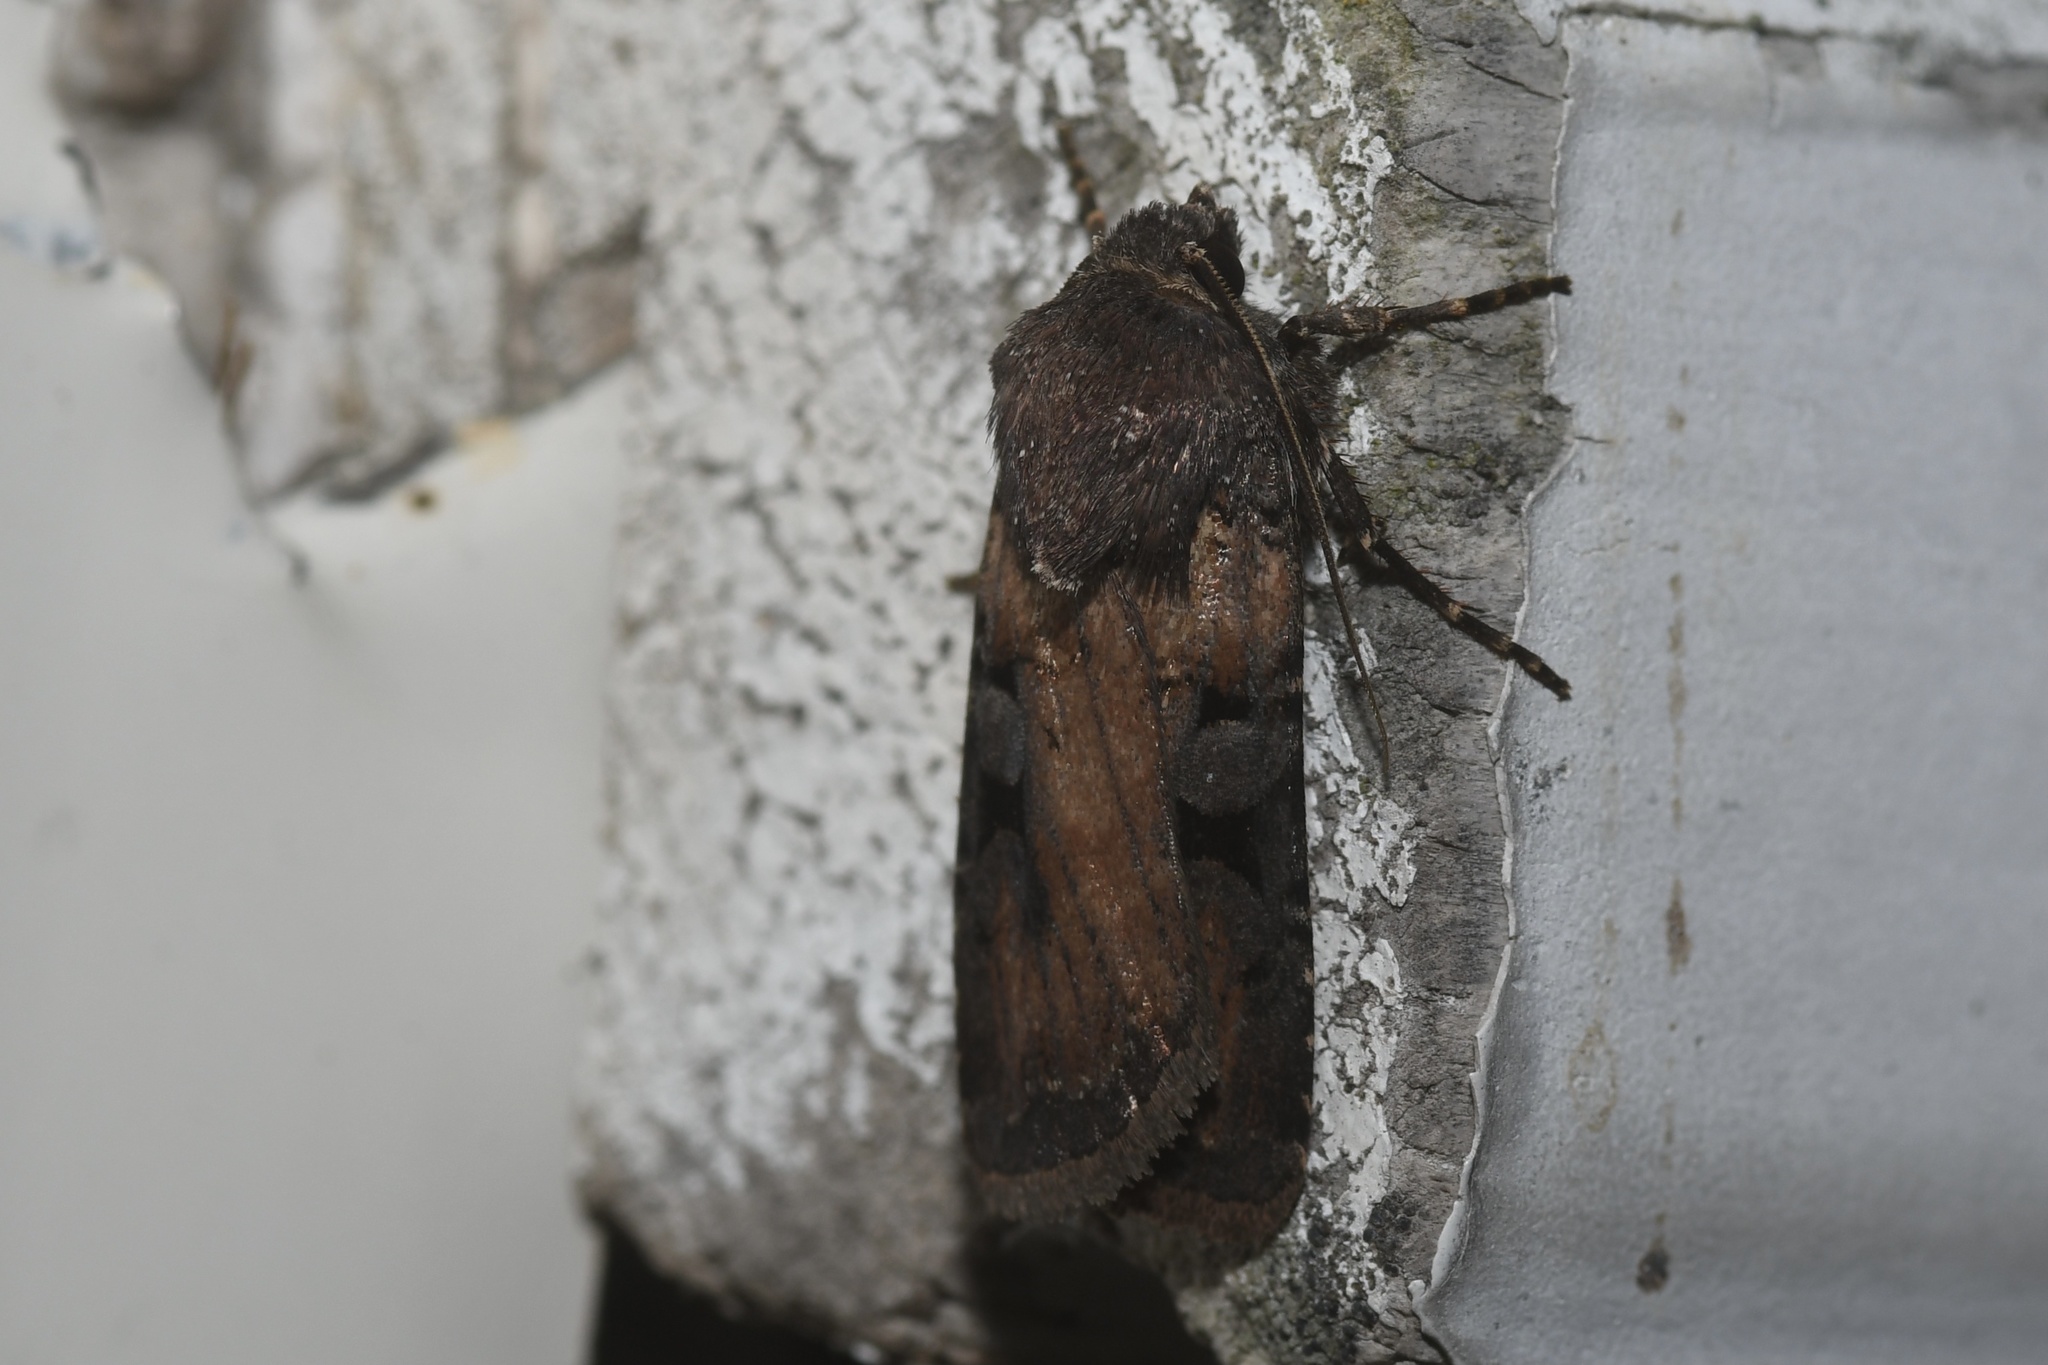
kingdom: Animalia
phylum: Arthropoda
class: Insecta
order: Lepidoptera
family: Noctuidae
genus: Euxoa
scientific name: Euxoa albipennis
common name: White-striped dart
